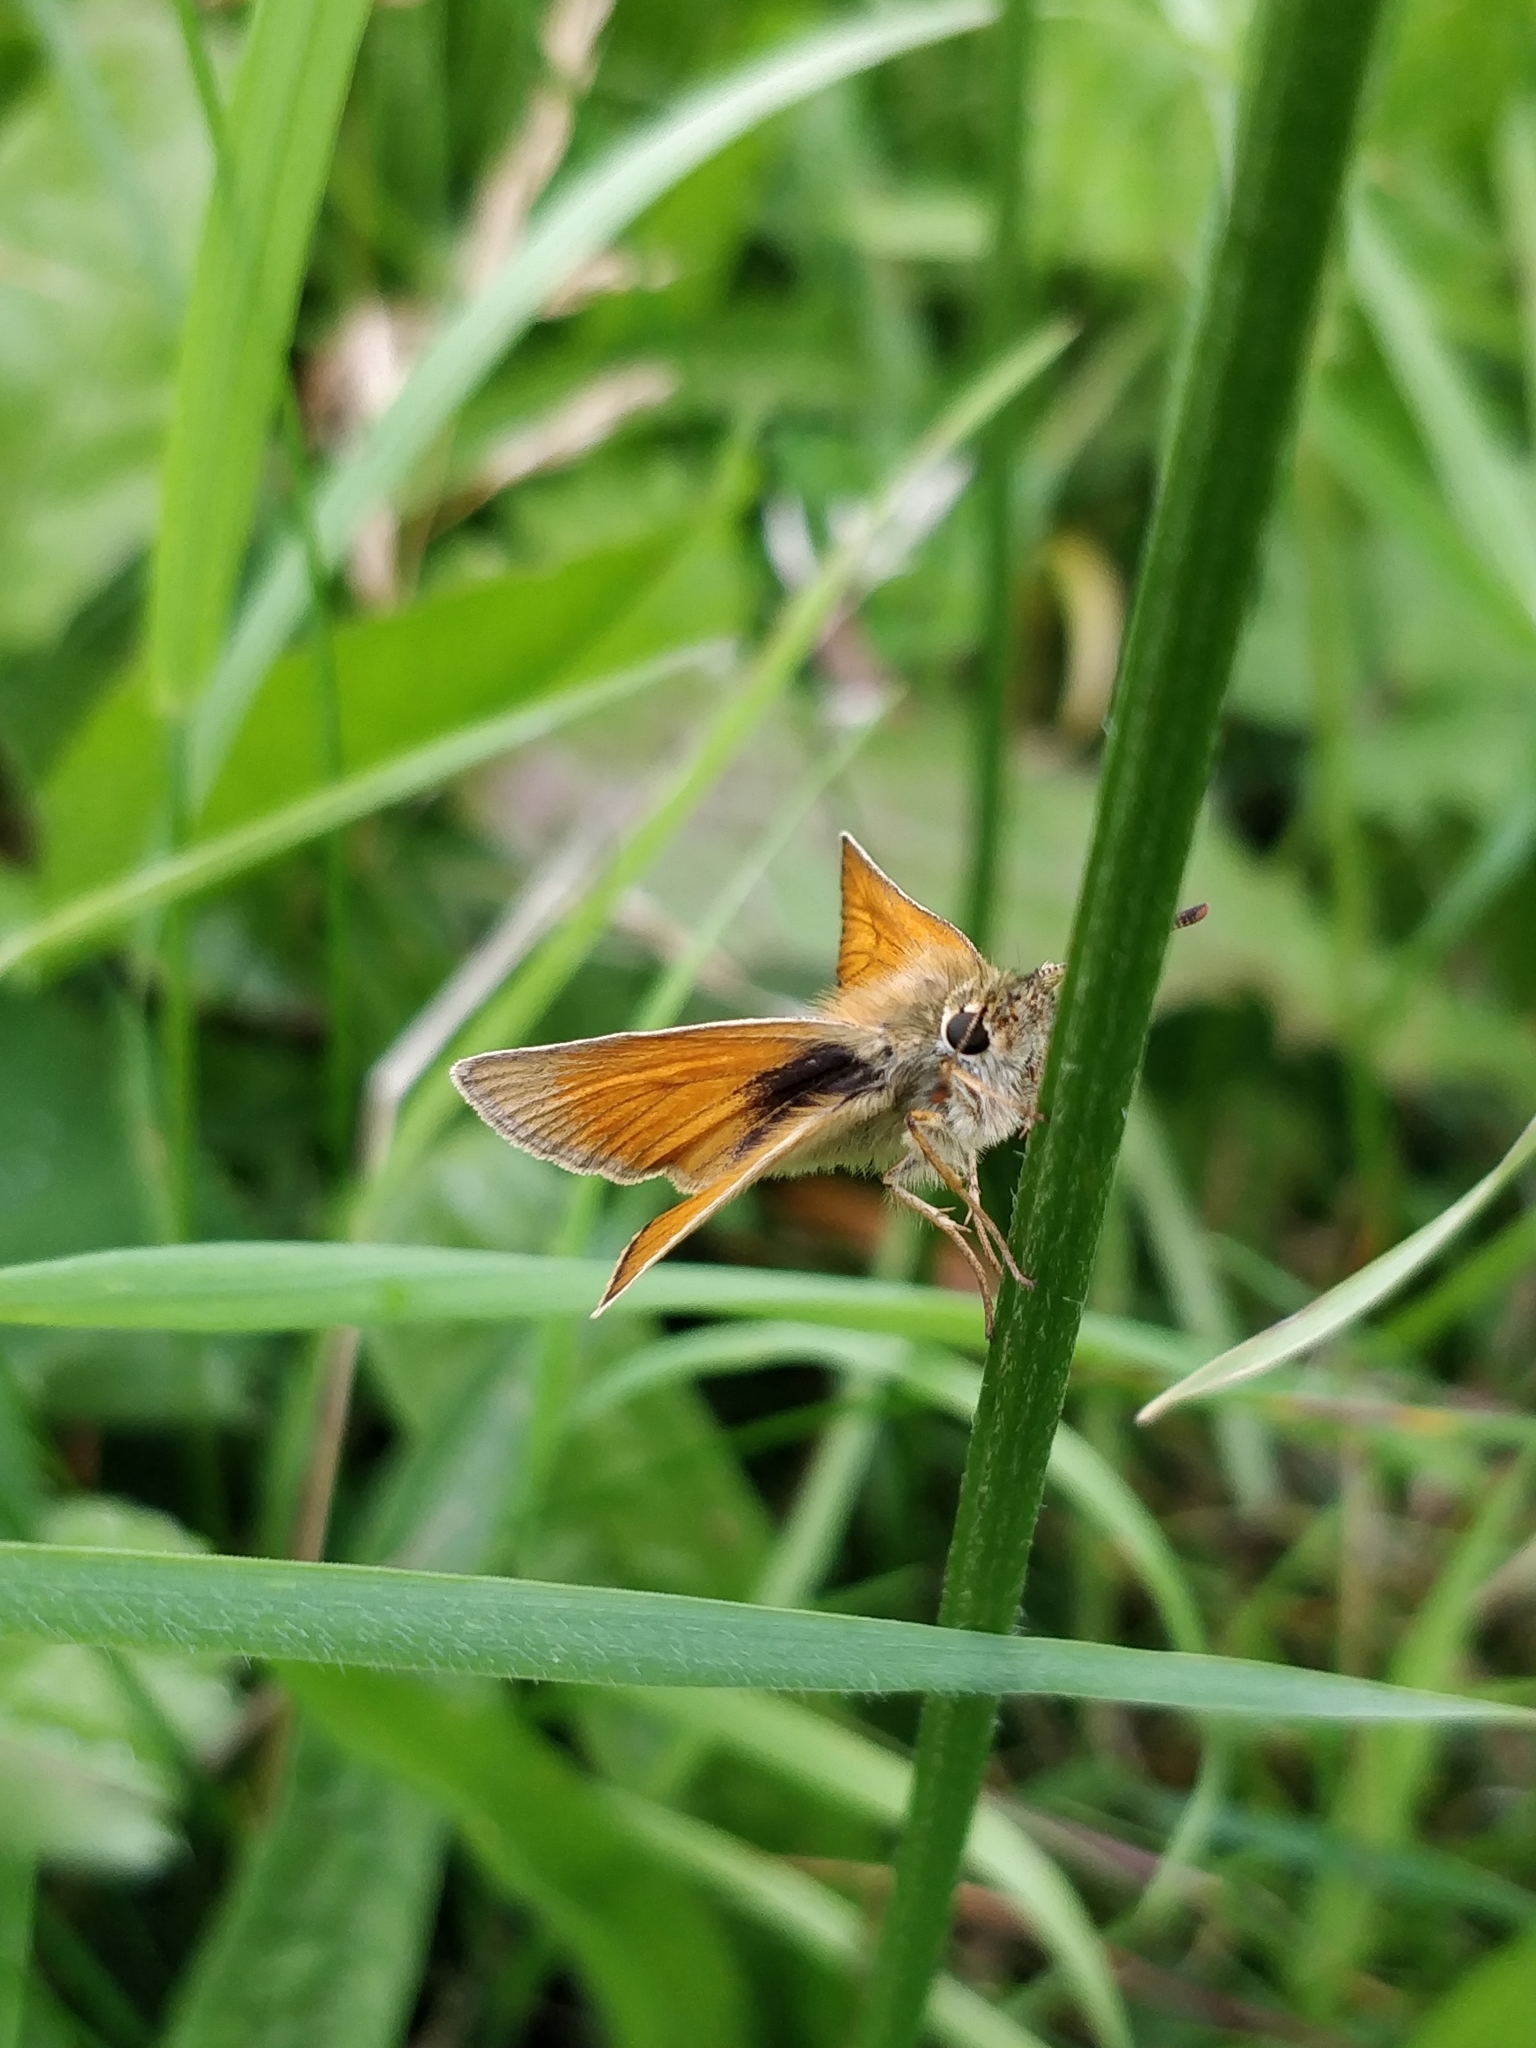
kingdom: Animalia
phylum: Arthropoda
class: Insecta
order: Lepidoptera
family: Hesperiidae
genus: Thymelicus
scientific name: Thymelicus sylvestris
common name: Small skipper
